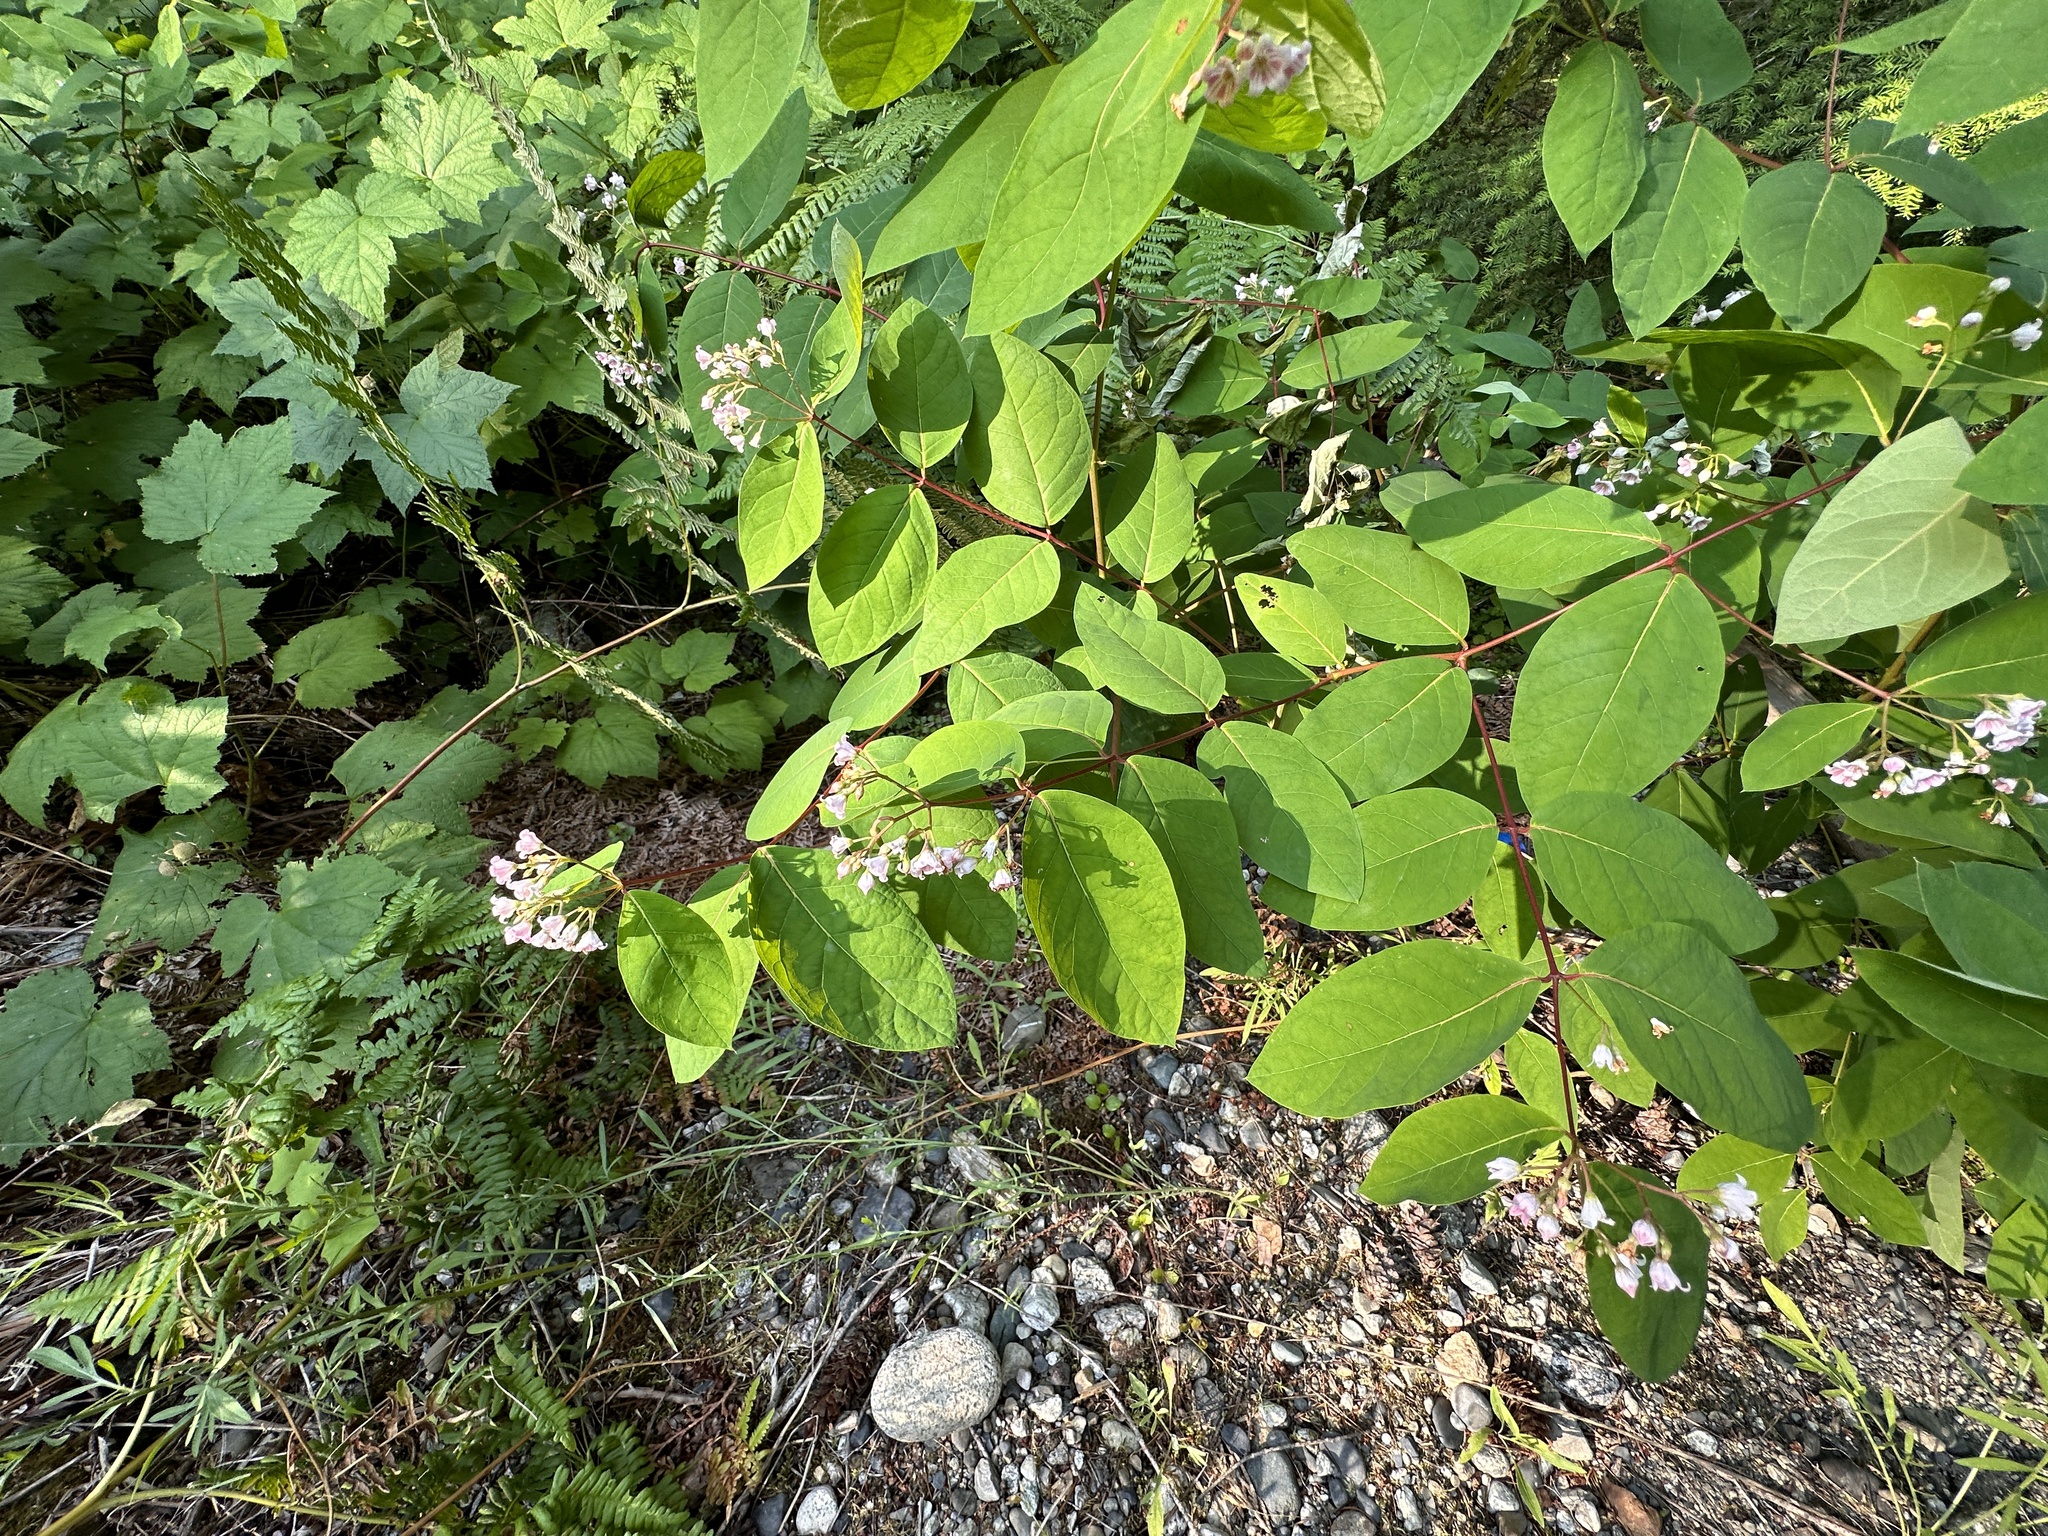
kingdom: Plantae
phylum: Tracheophyta
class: Magnoliopsida
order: Gentianales
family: Apocynaceae
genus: Apocynum
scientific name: Apocynum androsaemifolium
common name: Spreading dogbane
